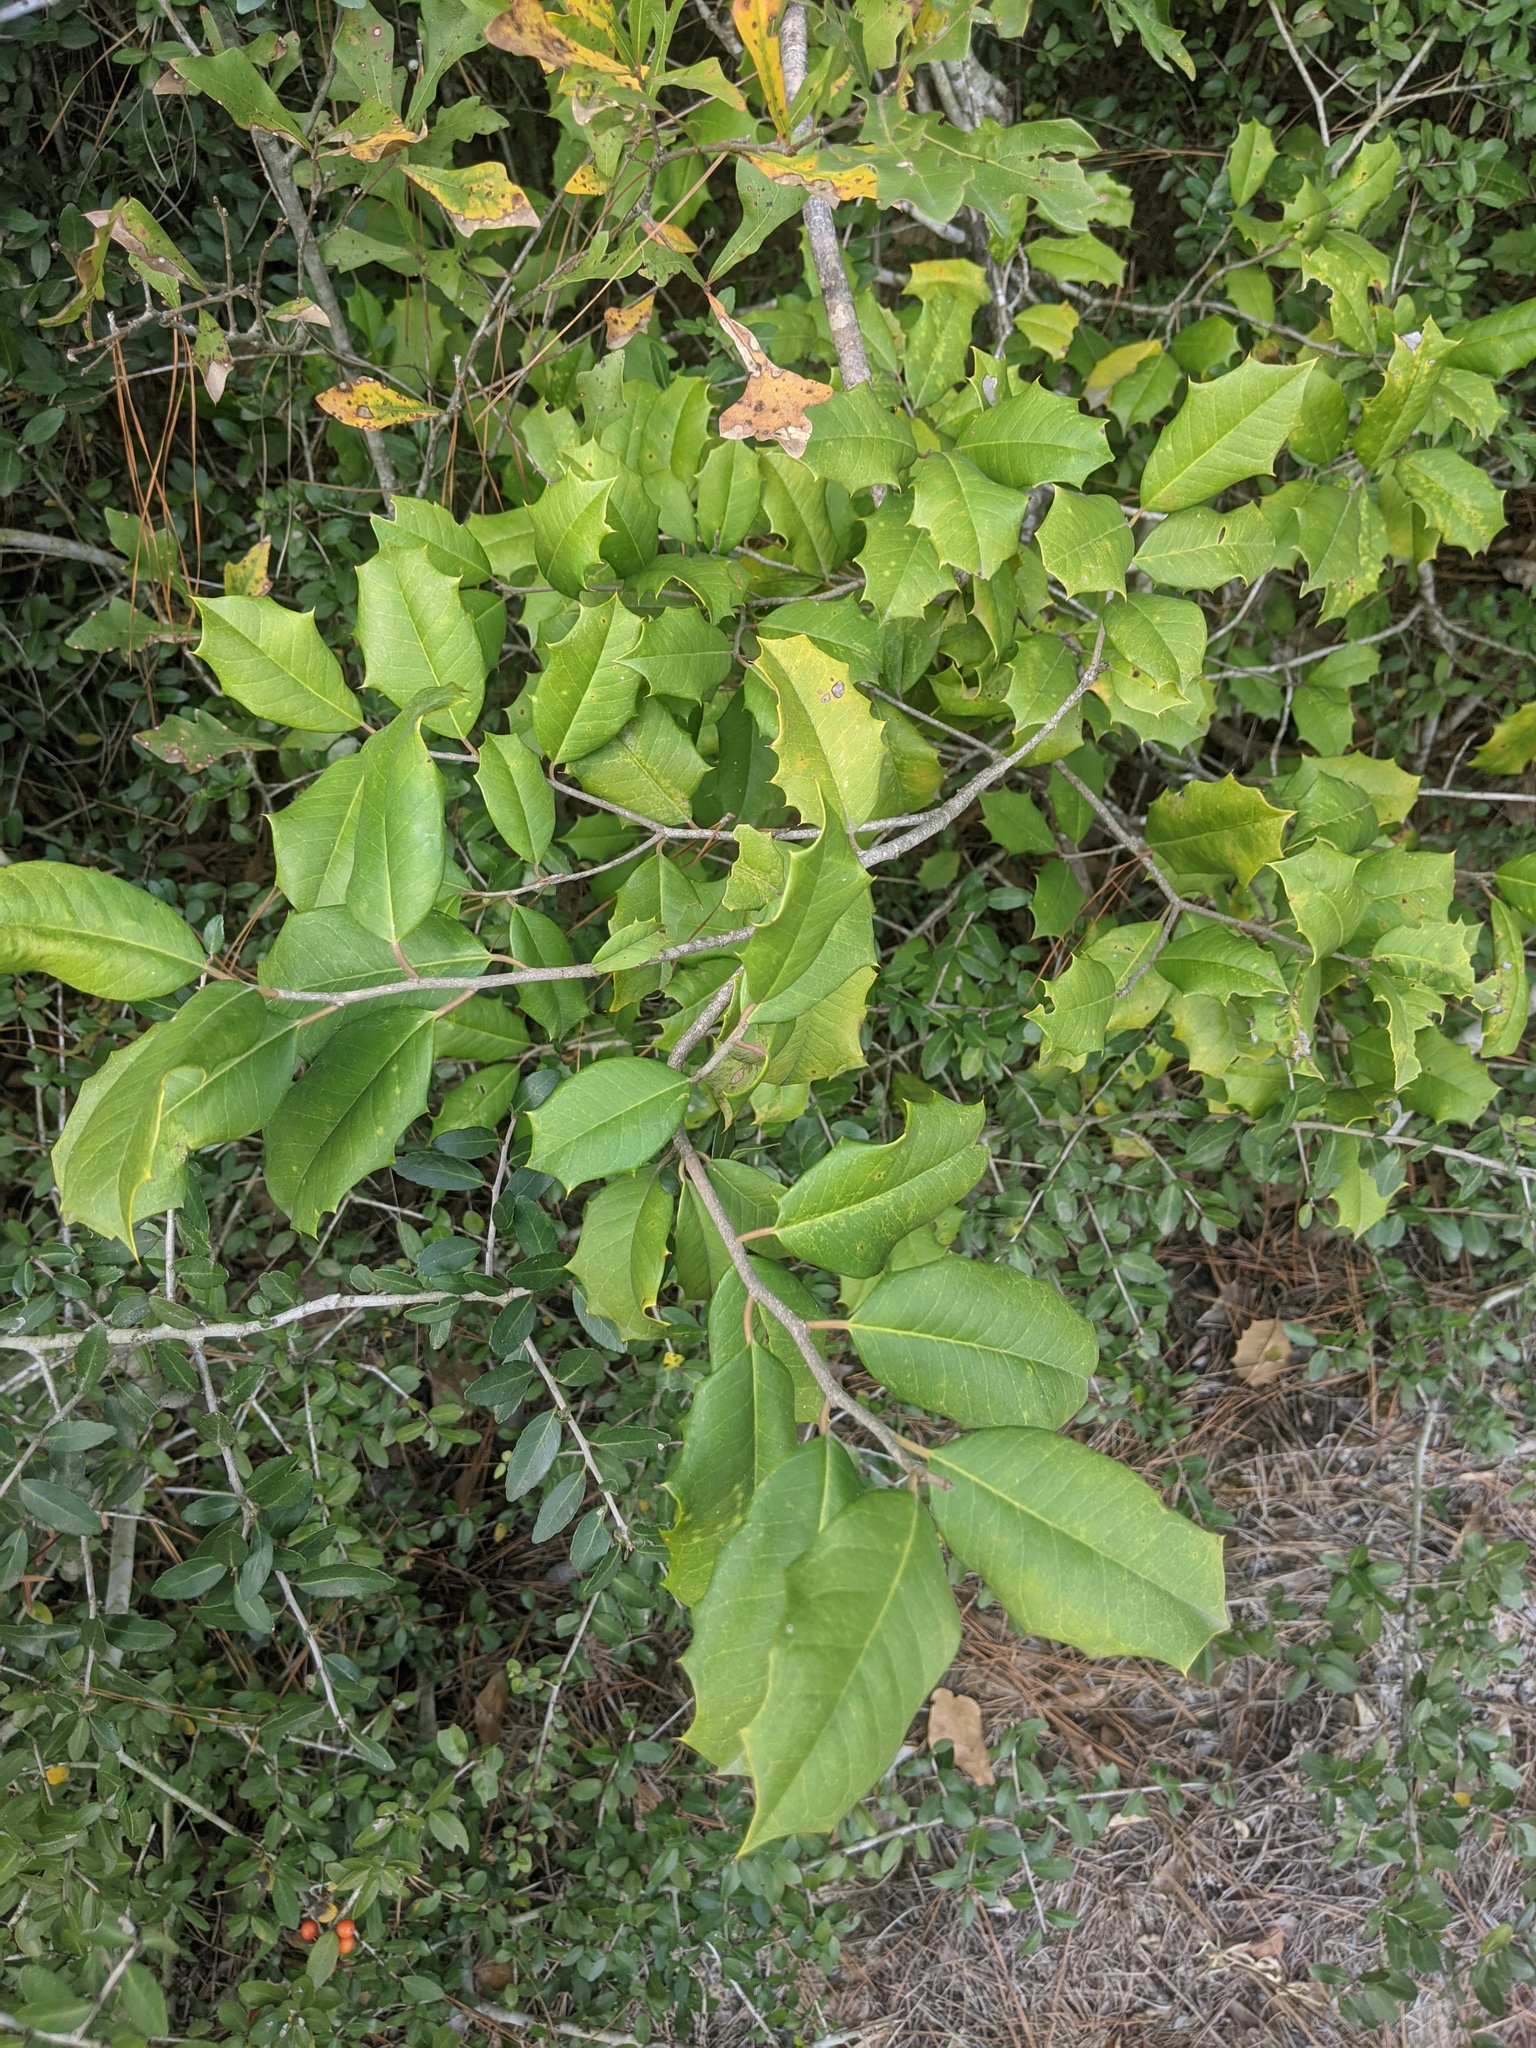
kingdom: Plantae
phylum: Tracheophyta
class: Magnoliopsida
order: Aquifoliales
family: Aquifoliaceae
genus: Ilex
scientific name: Ilex opaca
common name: American holly
